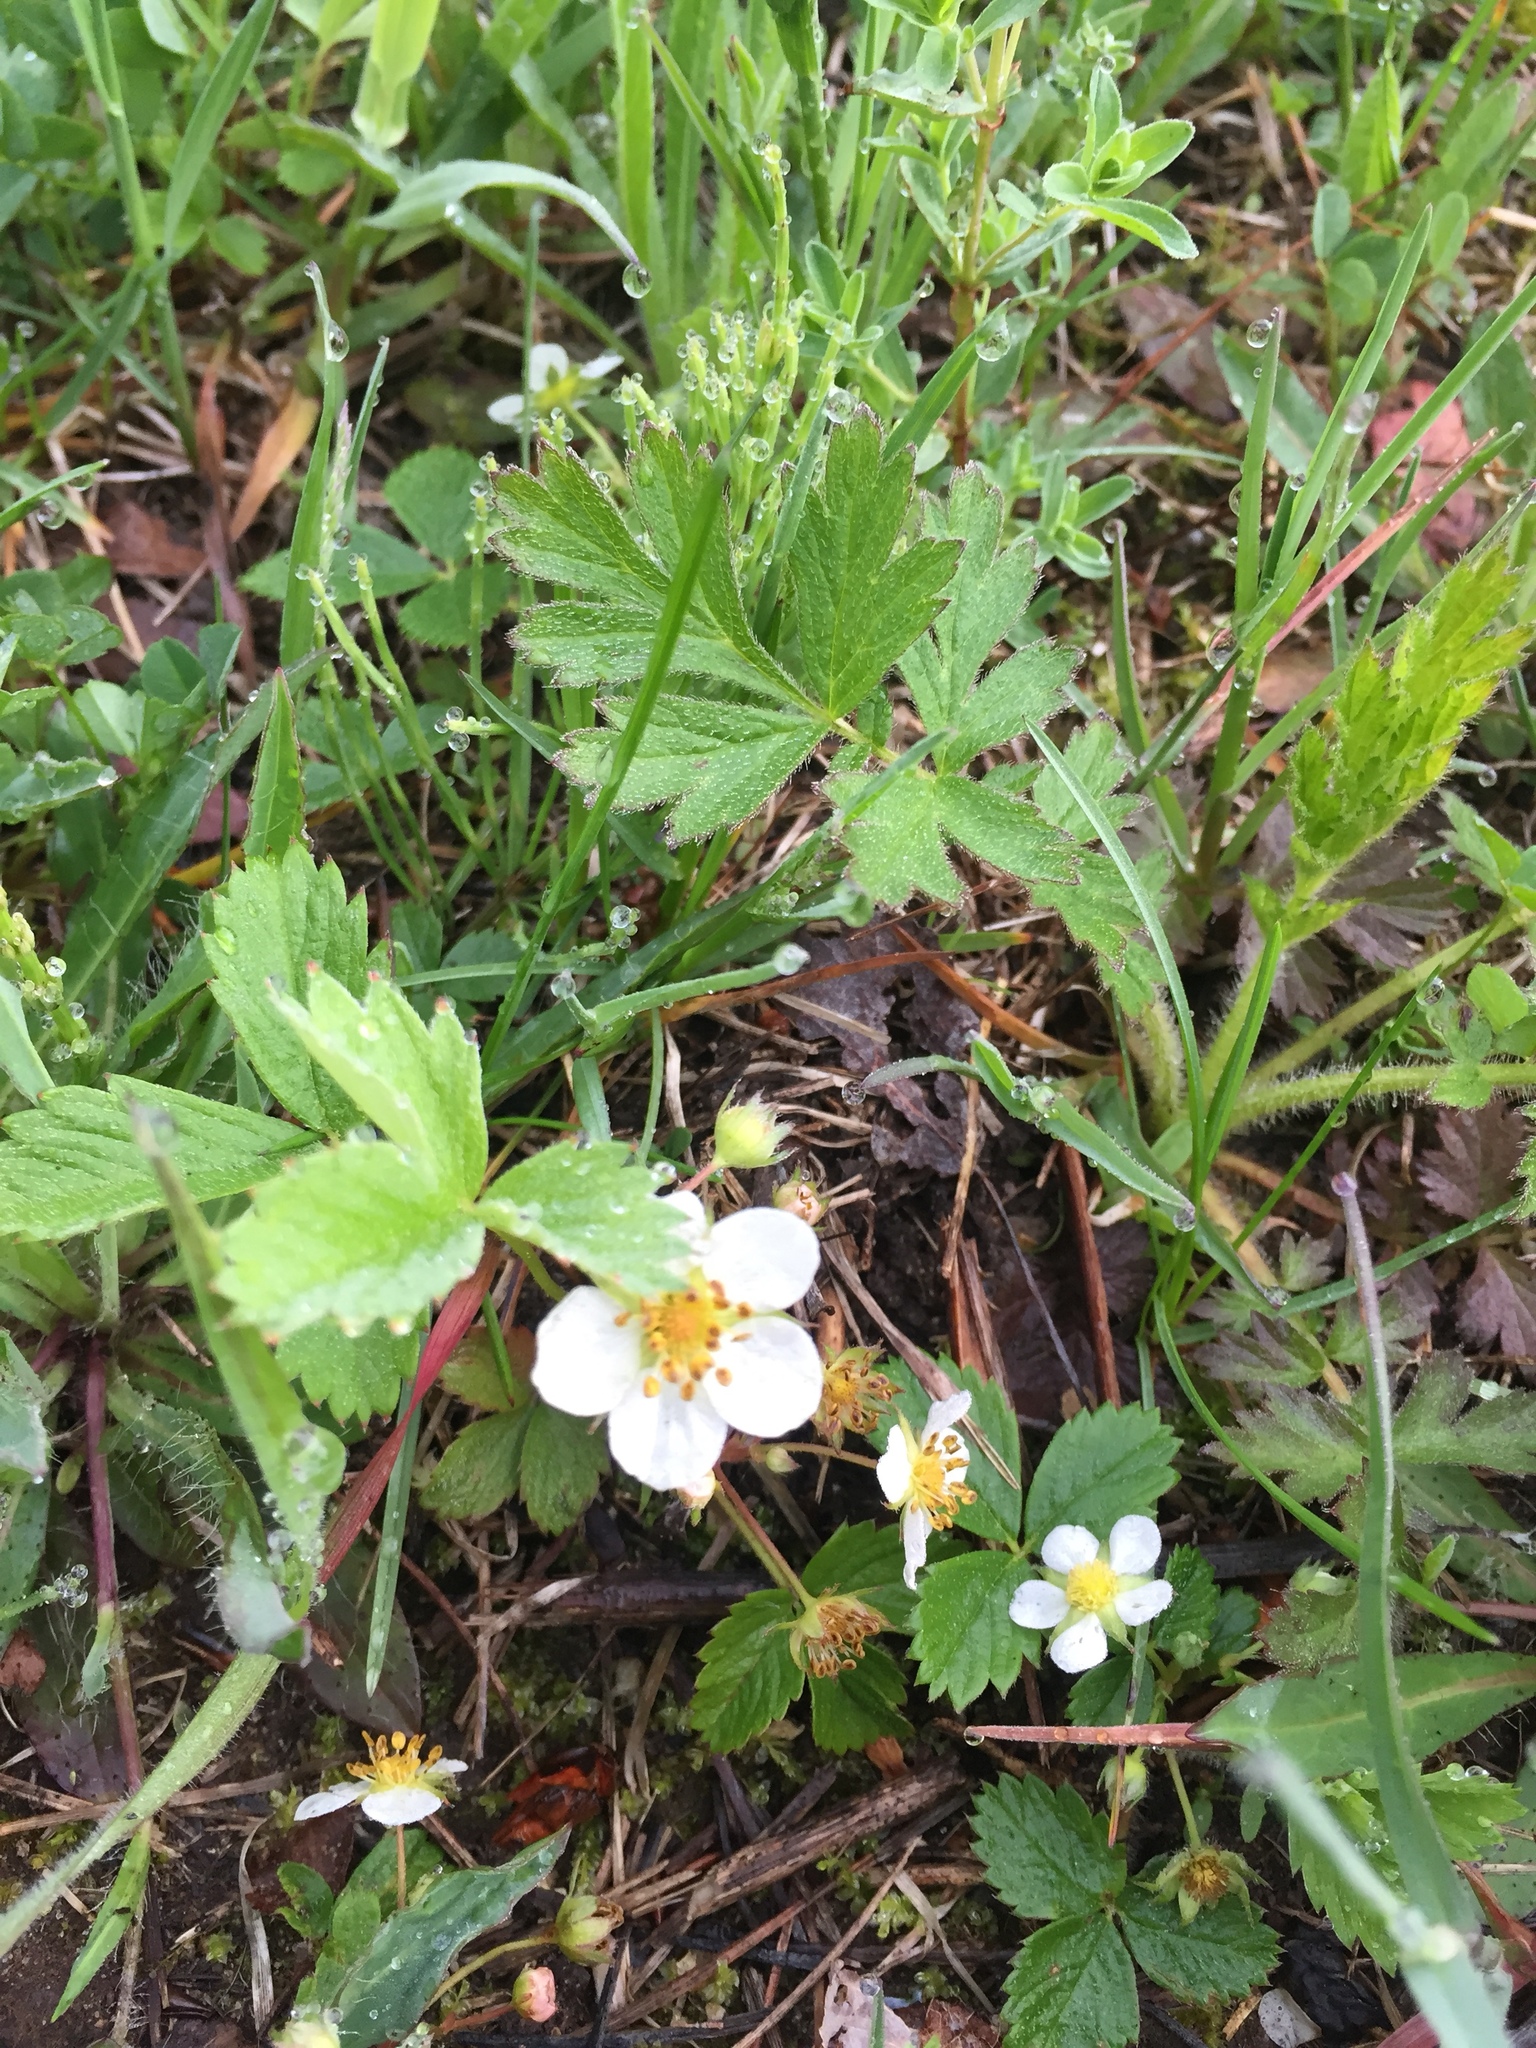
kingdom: Plantae
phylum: Tracheophyta
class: Magnoliopsida
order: Rosales
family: Rosaceae
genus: Fragaria
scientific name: Fragaria vesca
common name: Wild strawberry
